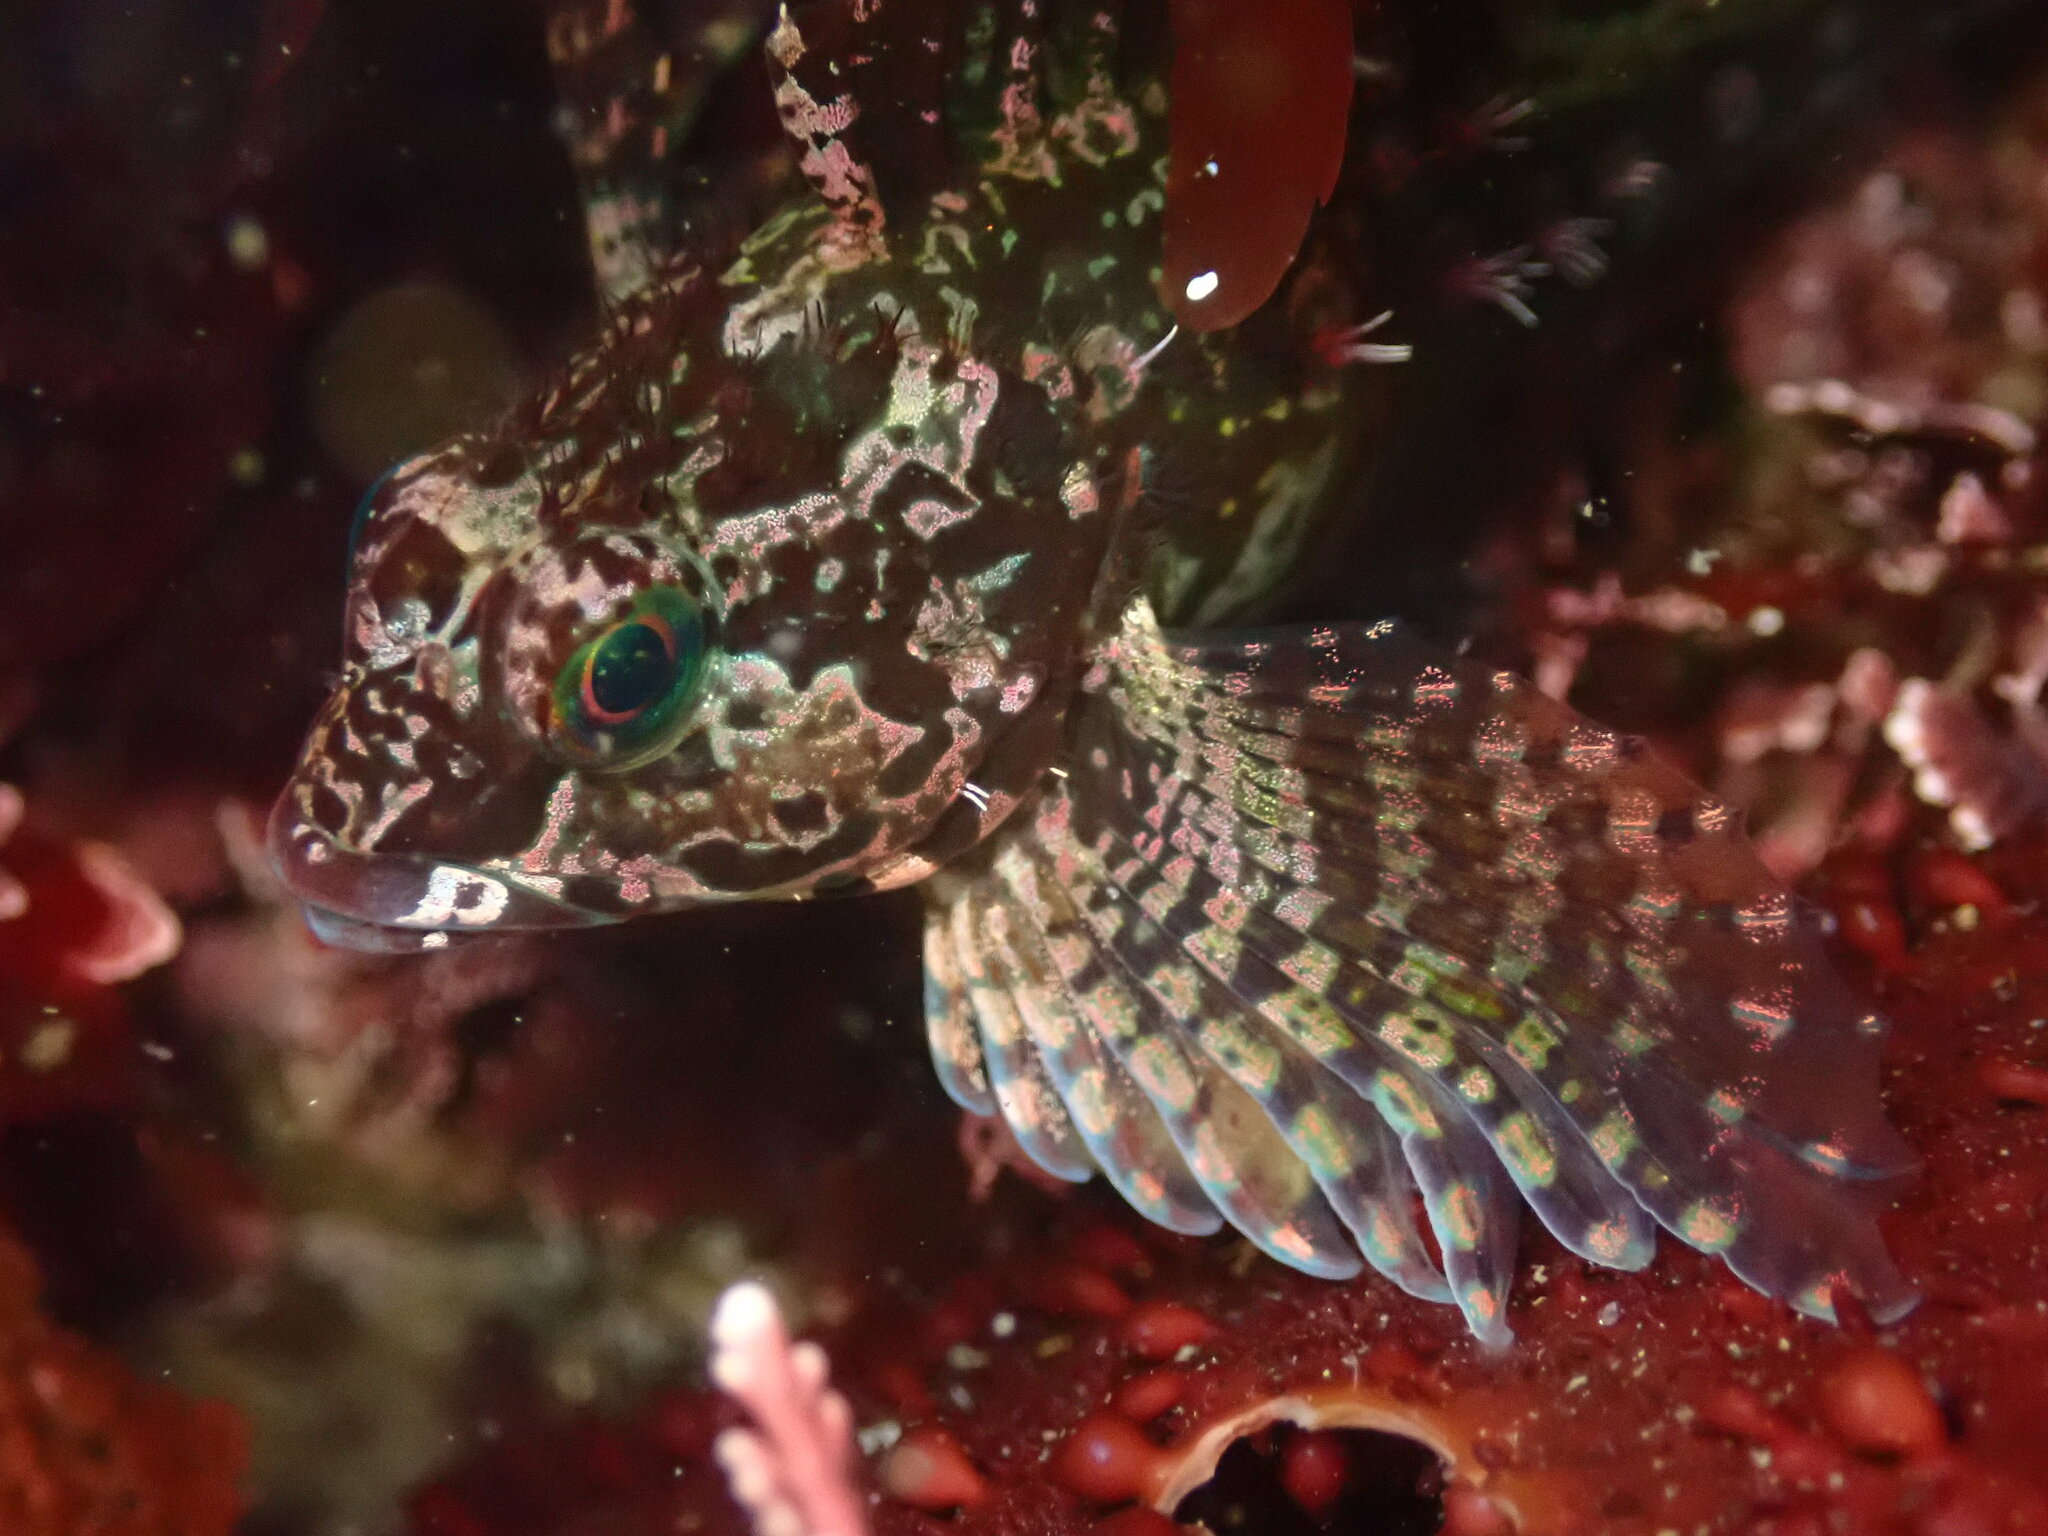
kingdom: Animalia
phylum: Chordata
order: Scorpaeniformes
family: Cottidae
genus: Oligocottus
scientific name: Oligocottus snyderi
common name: Fluffy sculpin
